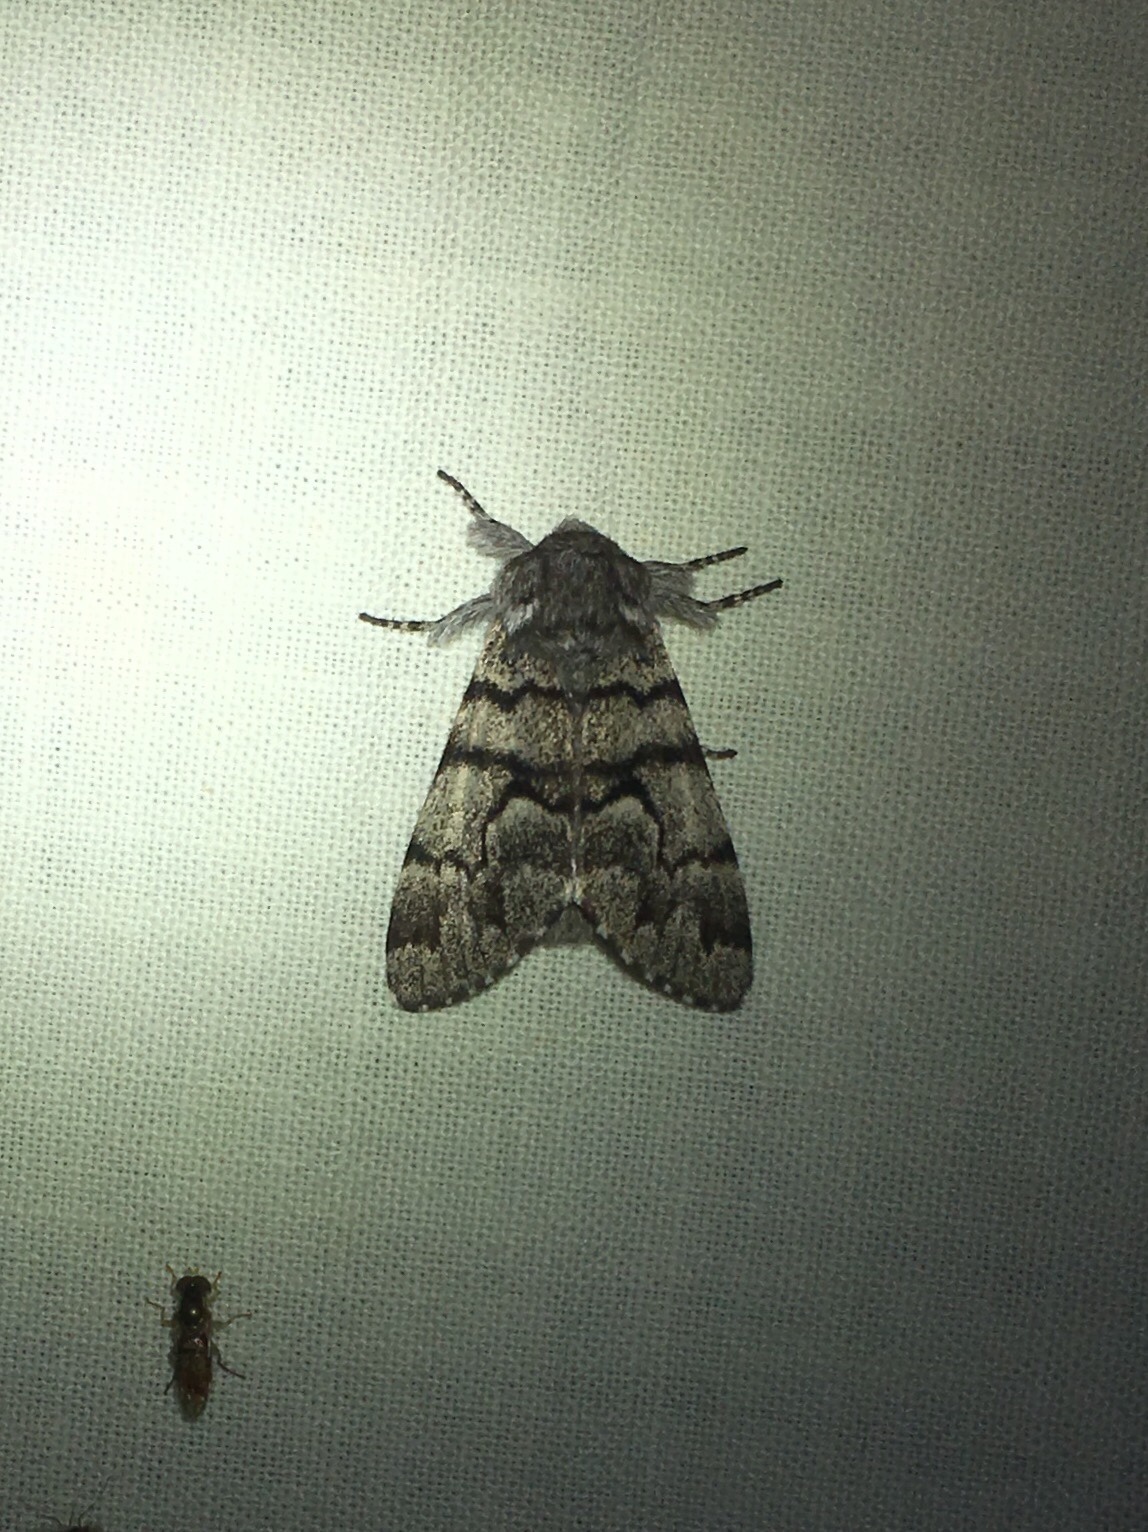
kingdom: Animalia
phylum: Arthropoda
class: Insecta
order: Lepidoptera
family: Noctuidae
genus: Panthea
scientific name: Panthea furcilla
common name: Eastern panthea moth
